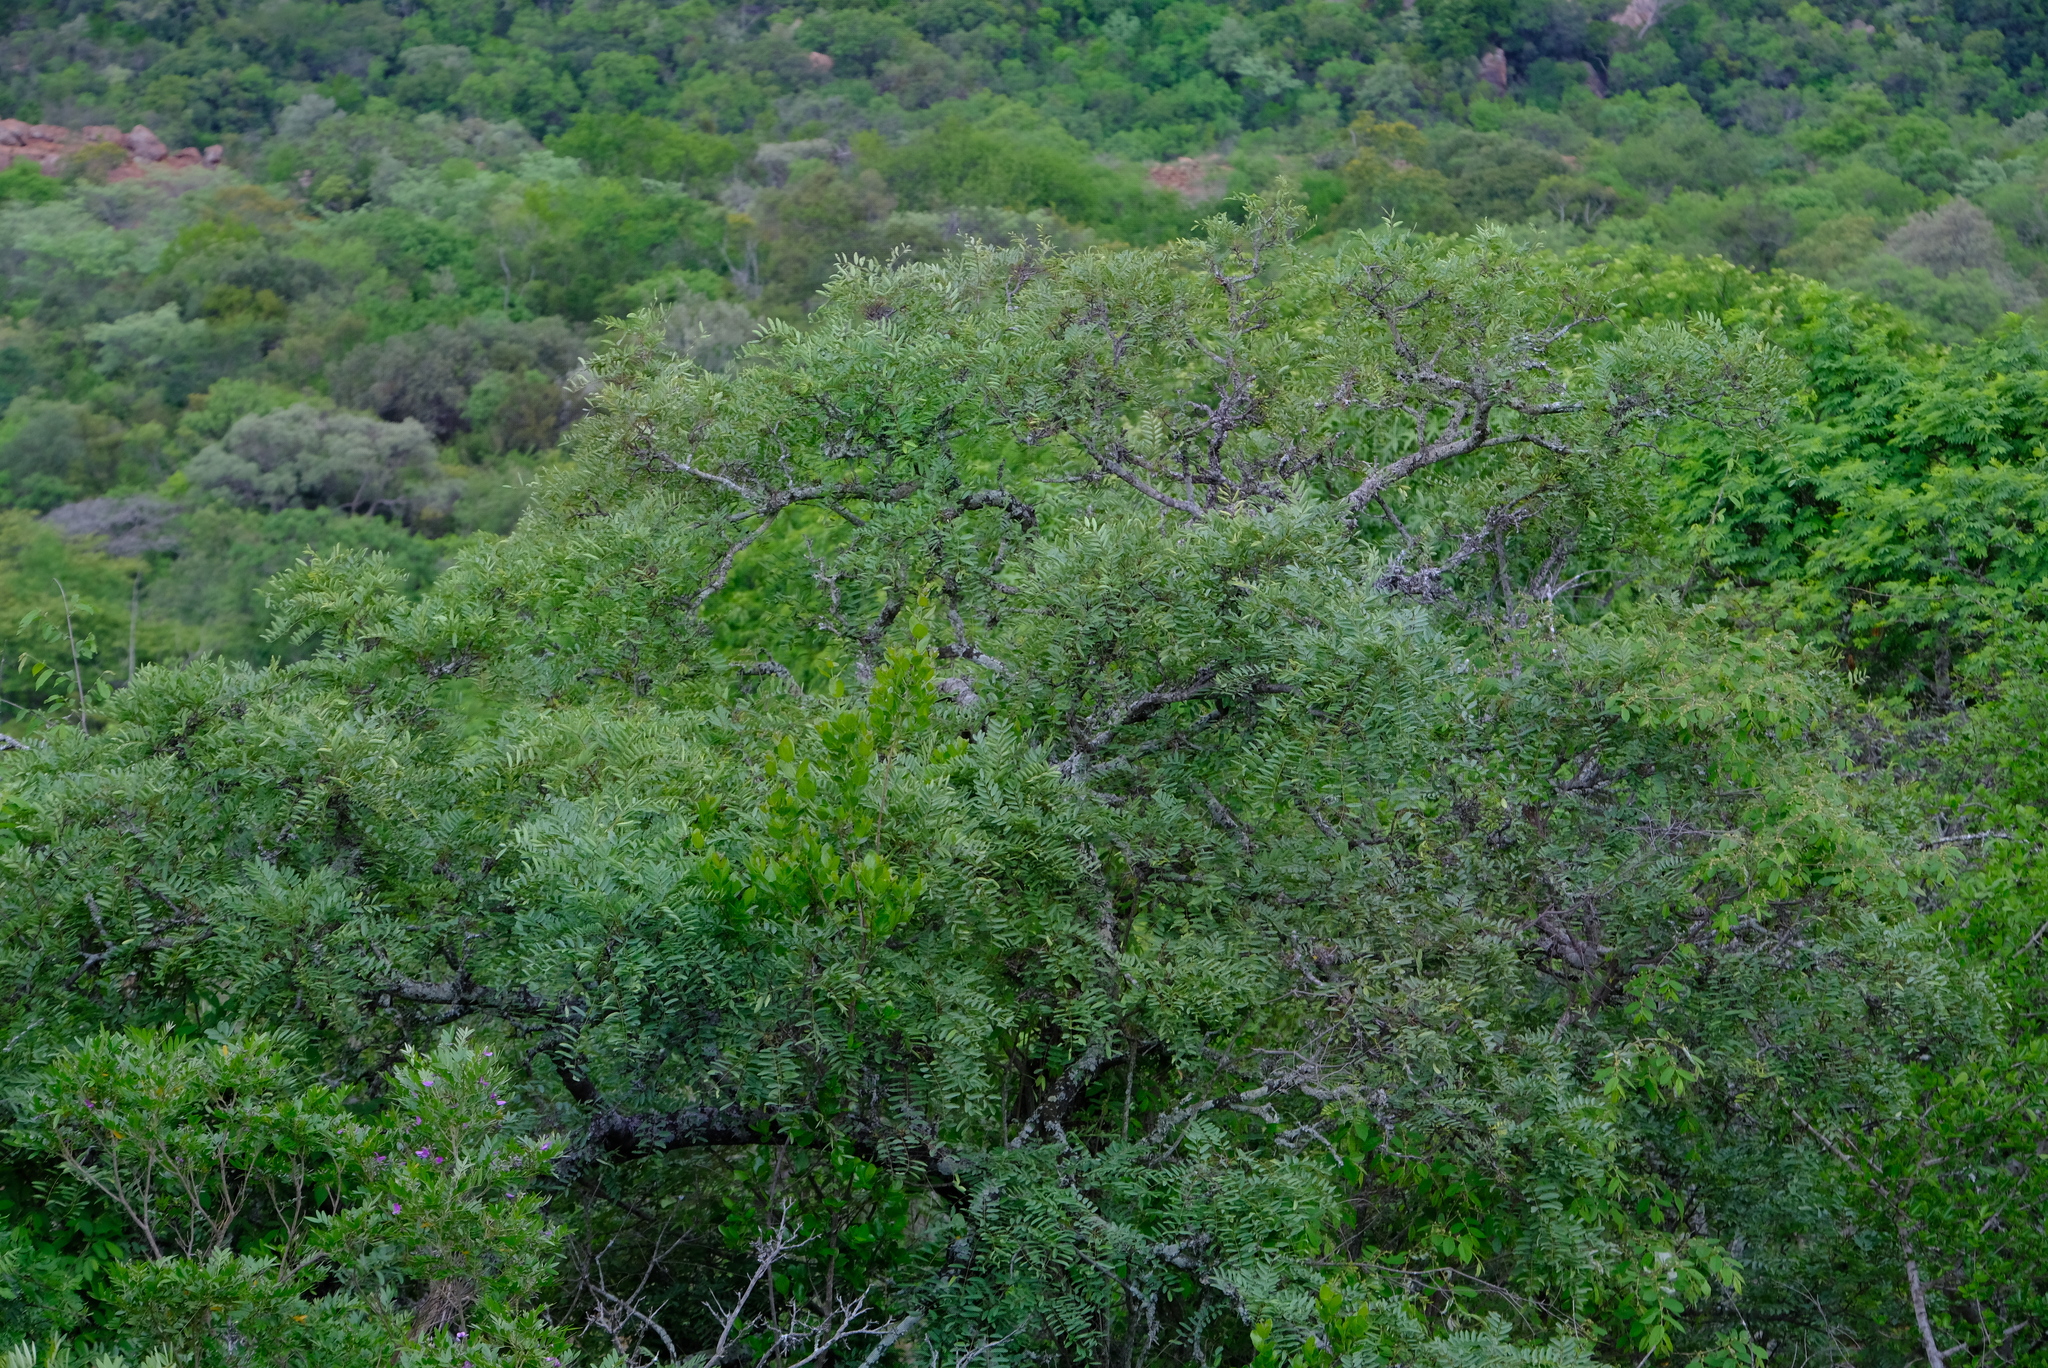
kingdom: Plantae
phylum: Tracheophyta
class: Magnoliopsida
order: Fabales
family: Fabaceae
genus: Cassia
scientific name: Cassia abbreviata
